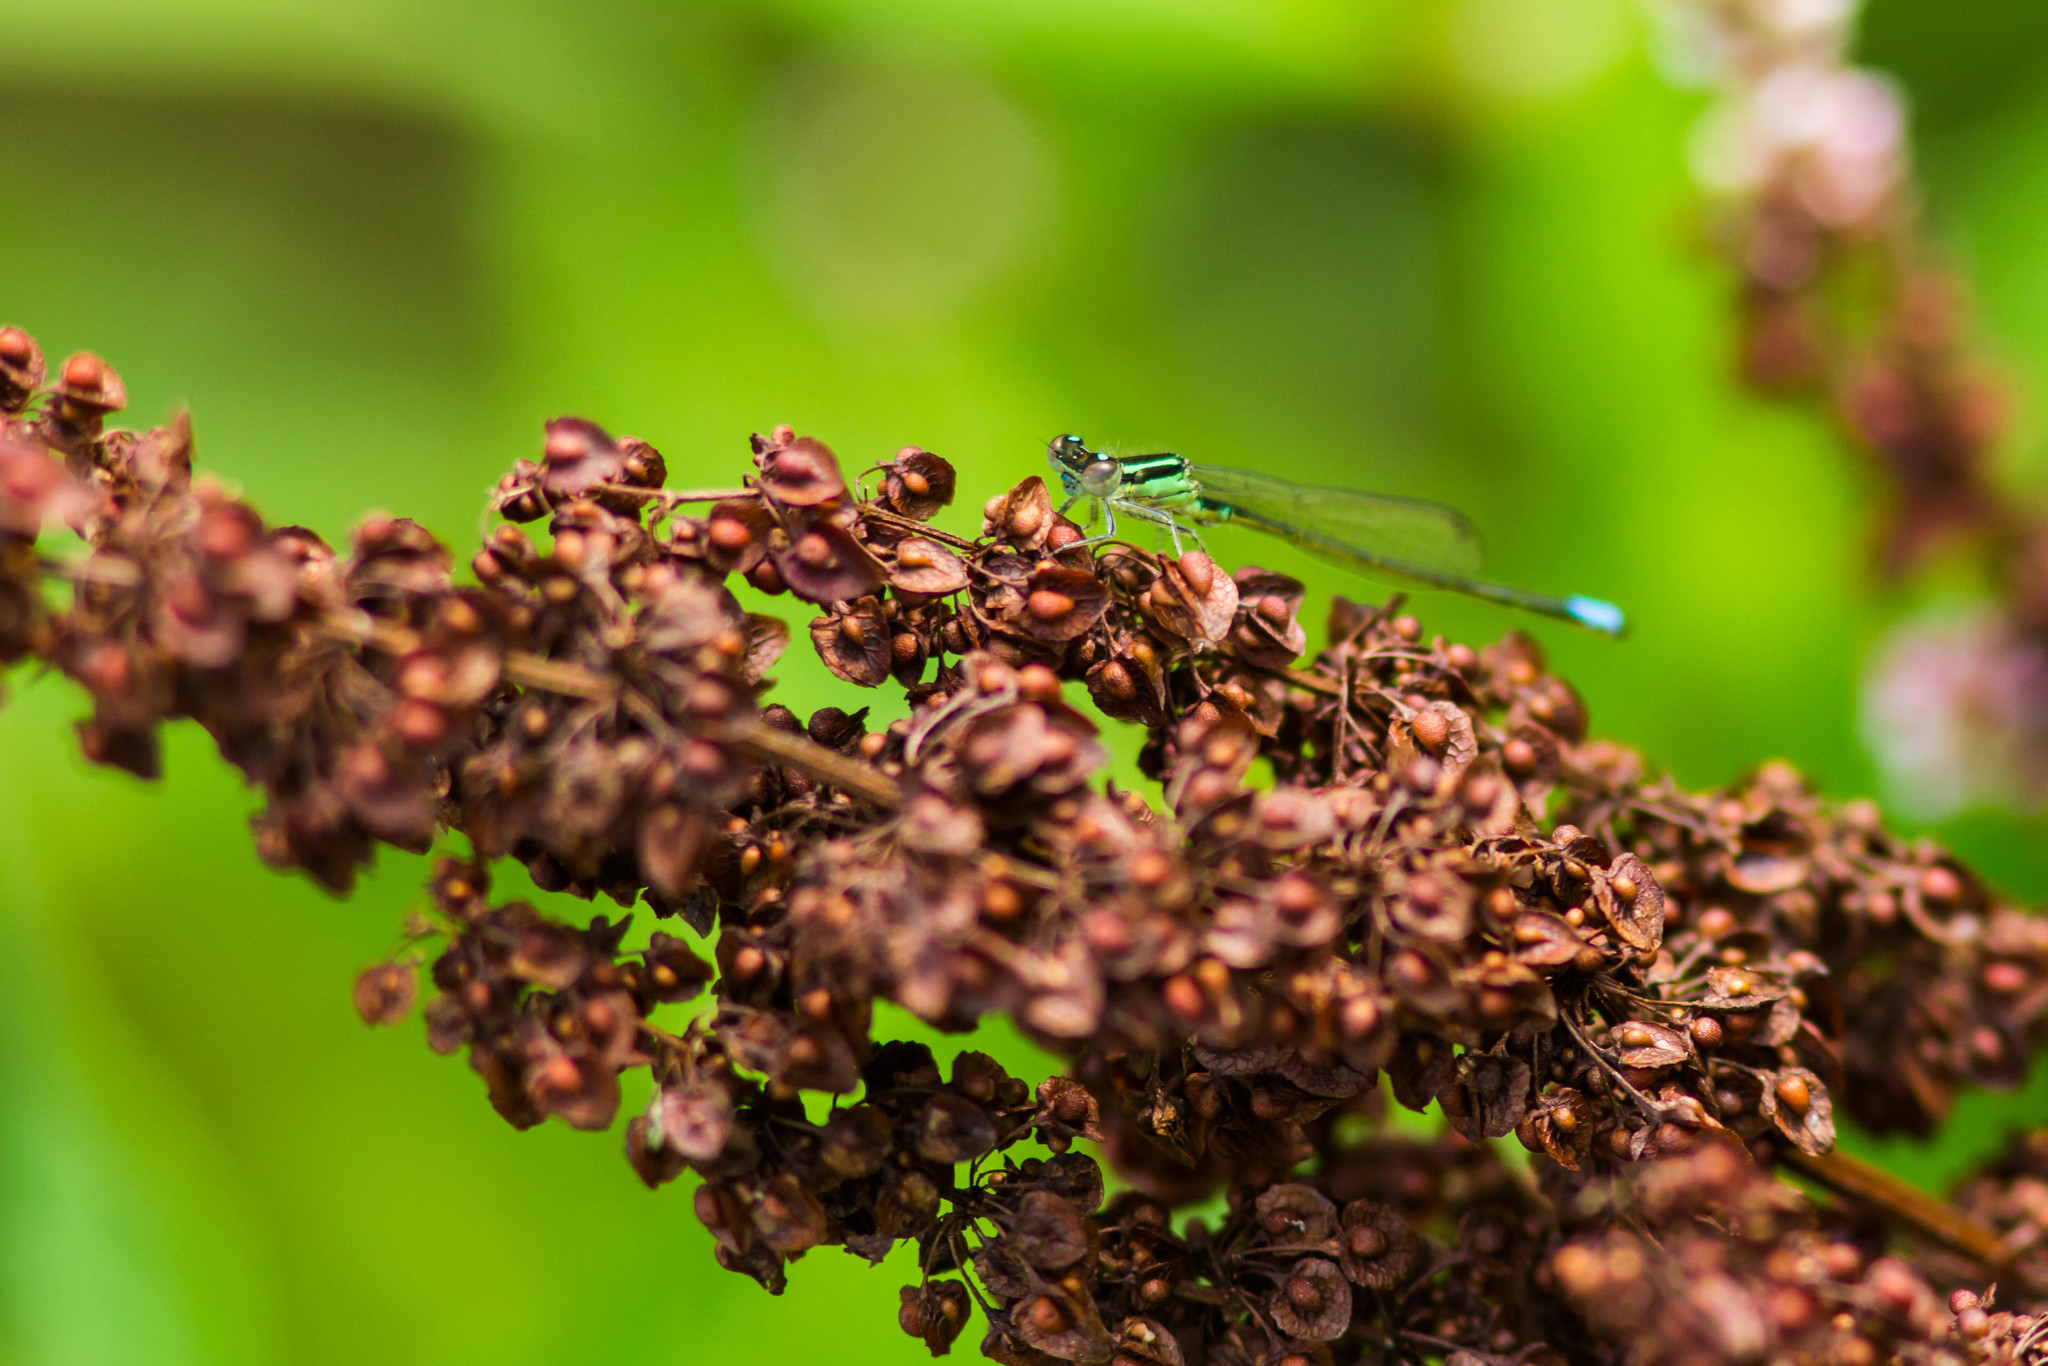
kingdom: Animalia
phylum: Arthropoda
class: Insecta
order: Odonata
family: Coenagrionidae
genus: Ischnura
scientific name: Ischnura verticalis
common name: Eastern forktail
